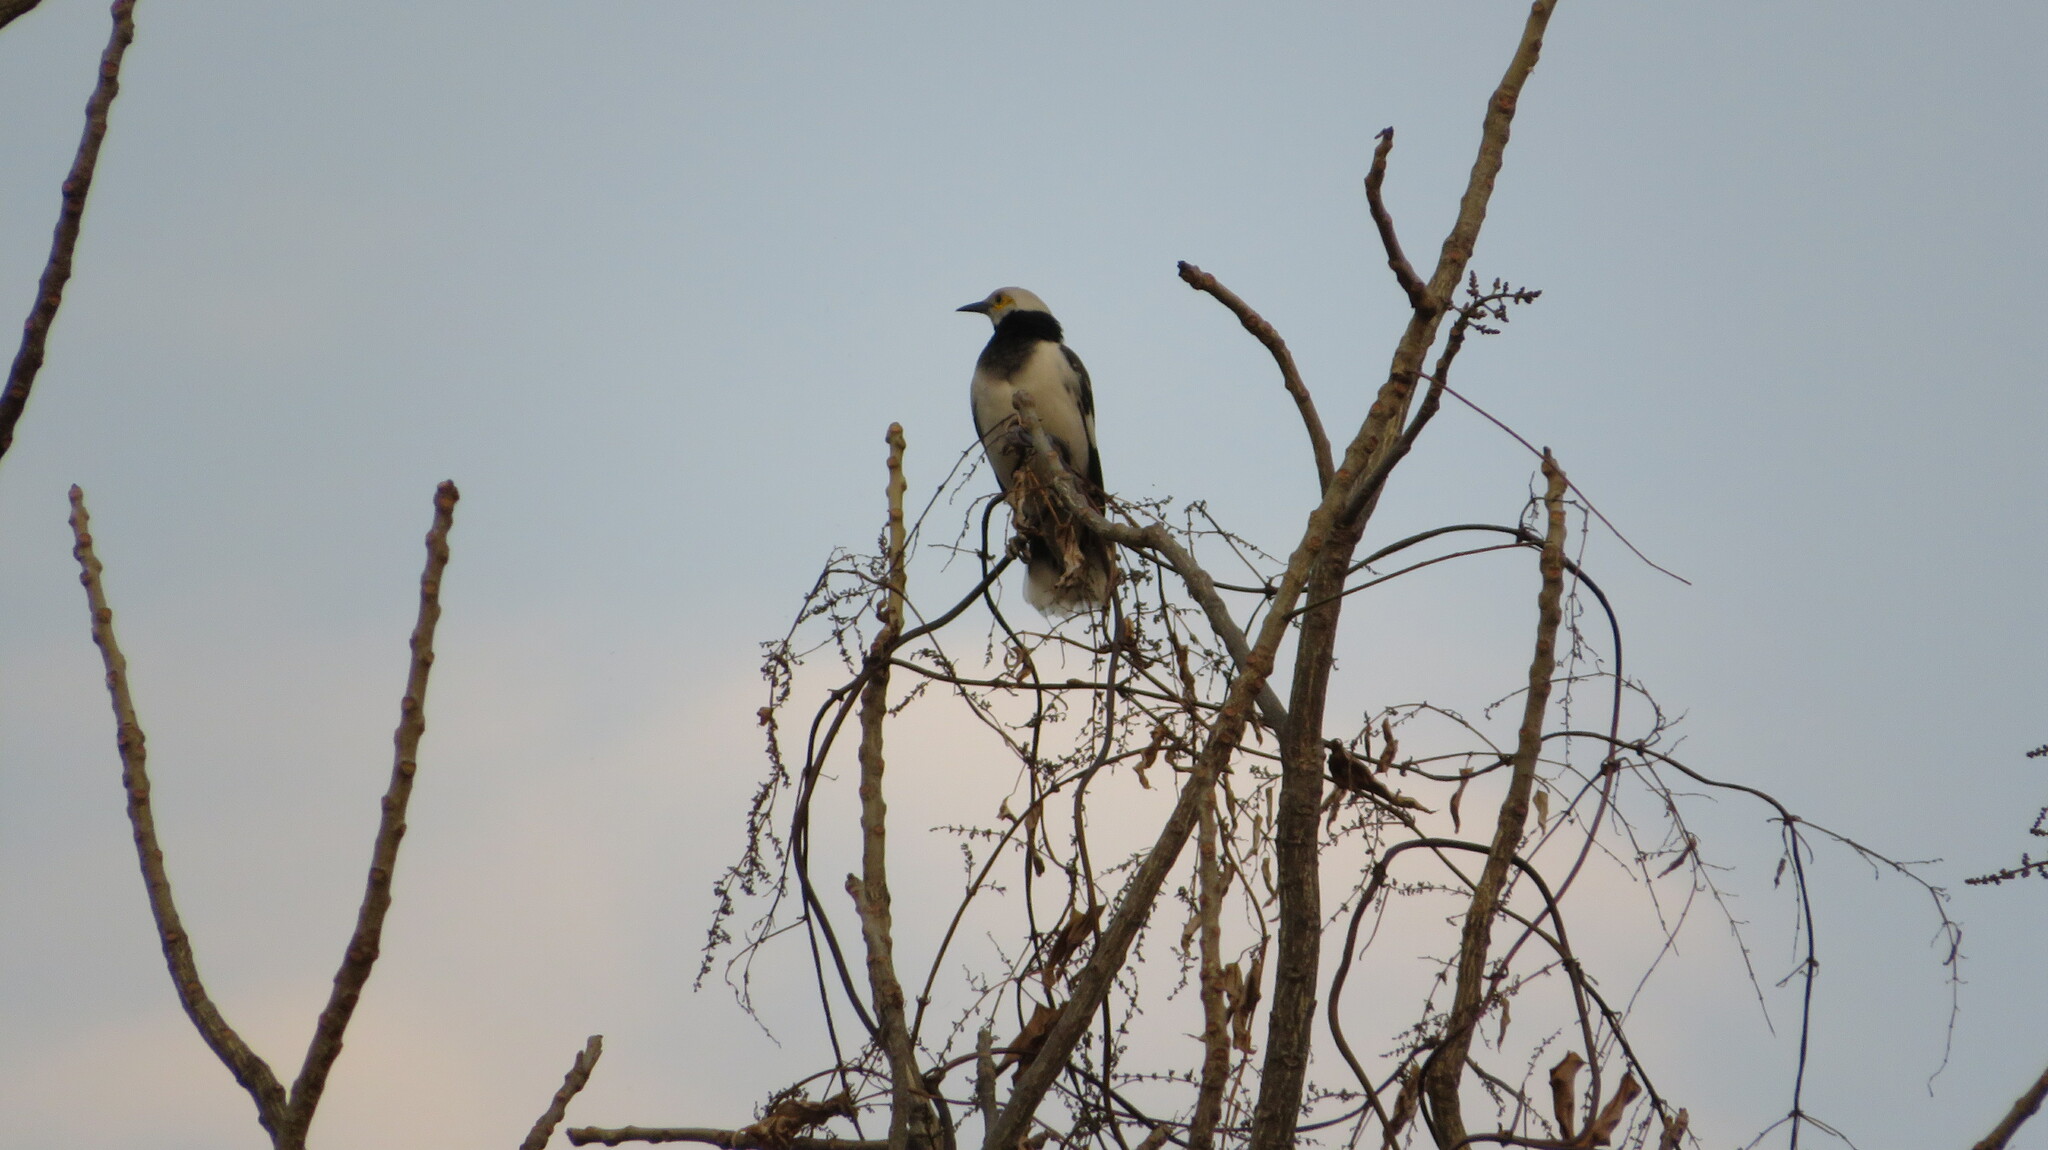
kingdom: Animalia
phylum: Chordata
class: Aves
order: Passeriformes
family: Sturnidae
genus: Gracupica
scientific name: Gracupica nigricollis
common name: Black-collared starling
